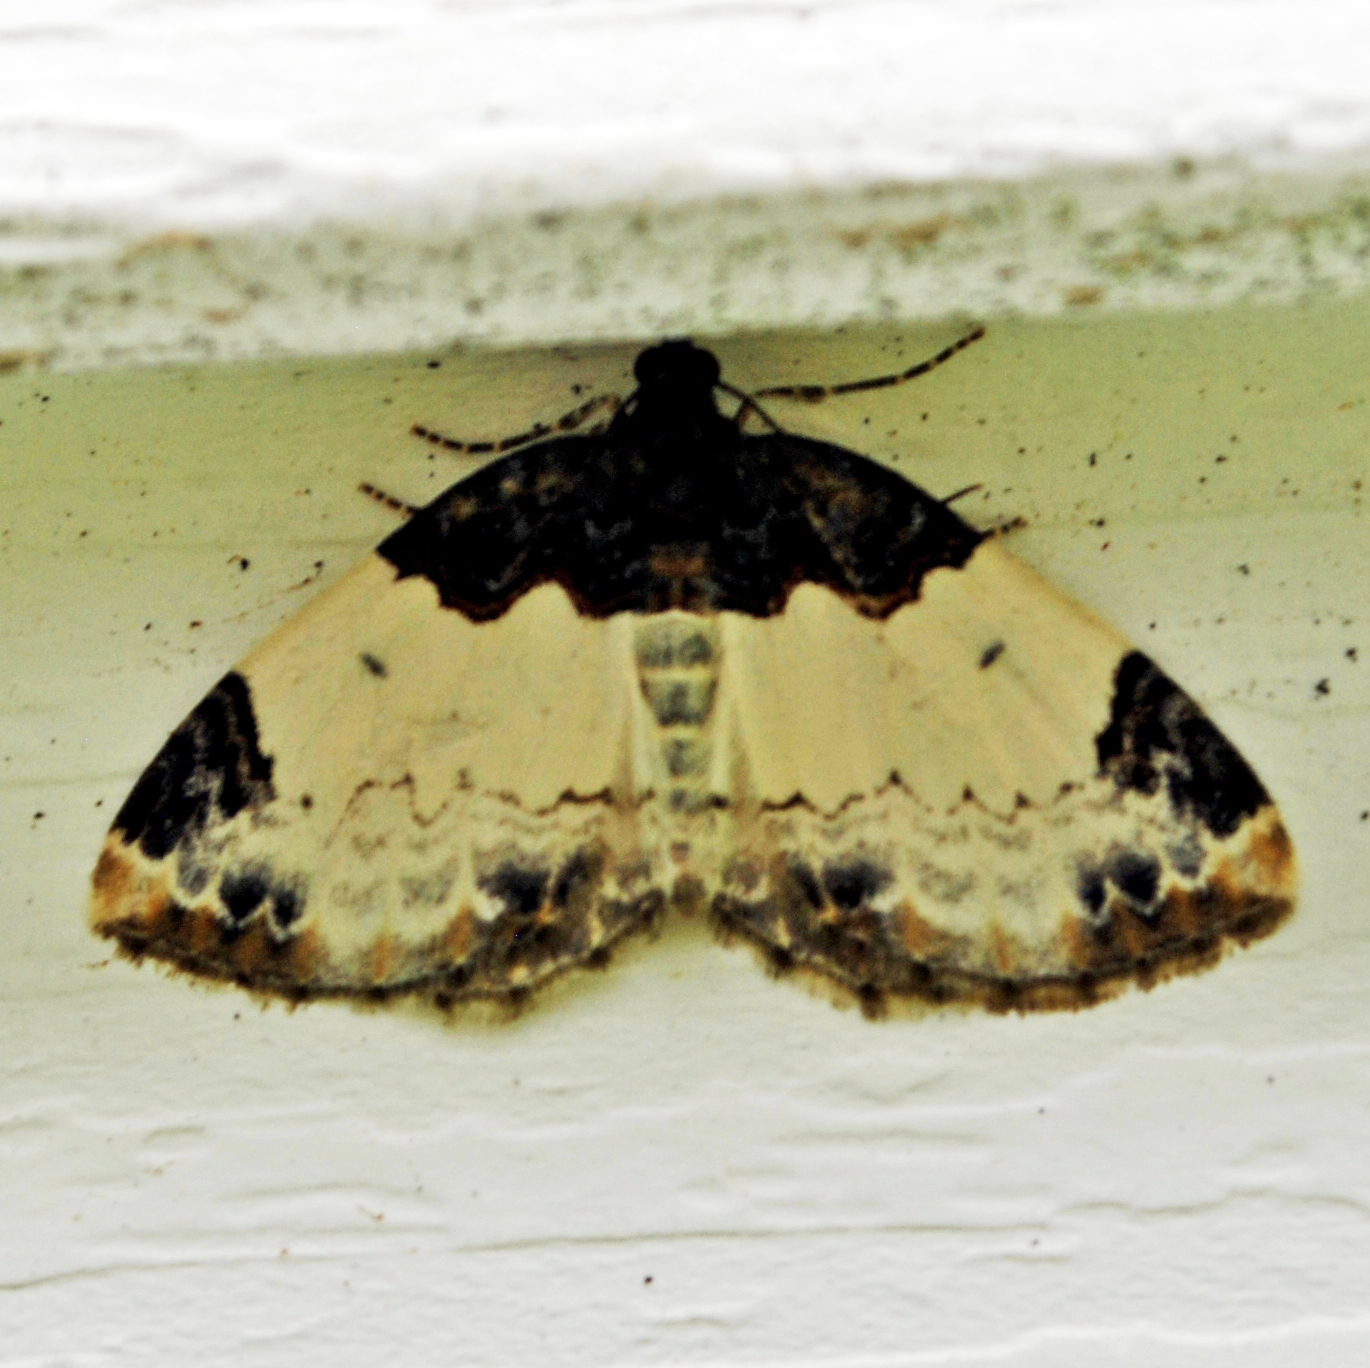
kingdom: Animalia
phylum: Arthropoda
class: Insecta
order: Lepidoptera
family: Geometridae
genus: Mesoleuca
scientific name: Mesoleuca ruficillata
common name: White-ribboned carpet moth
